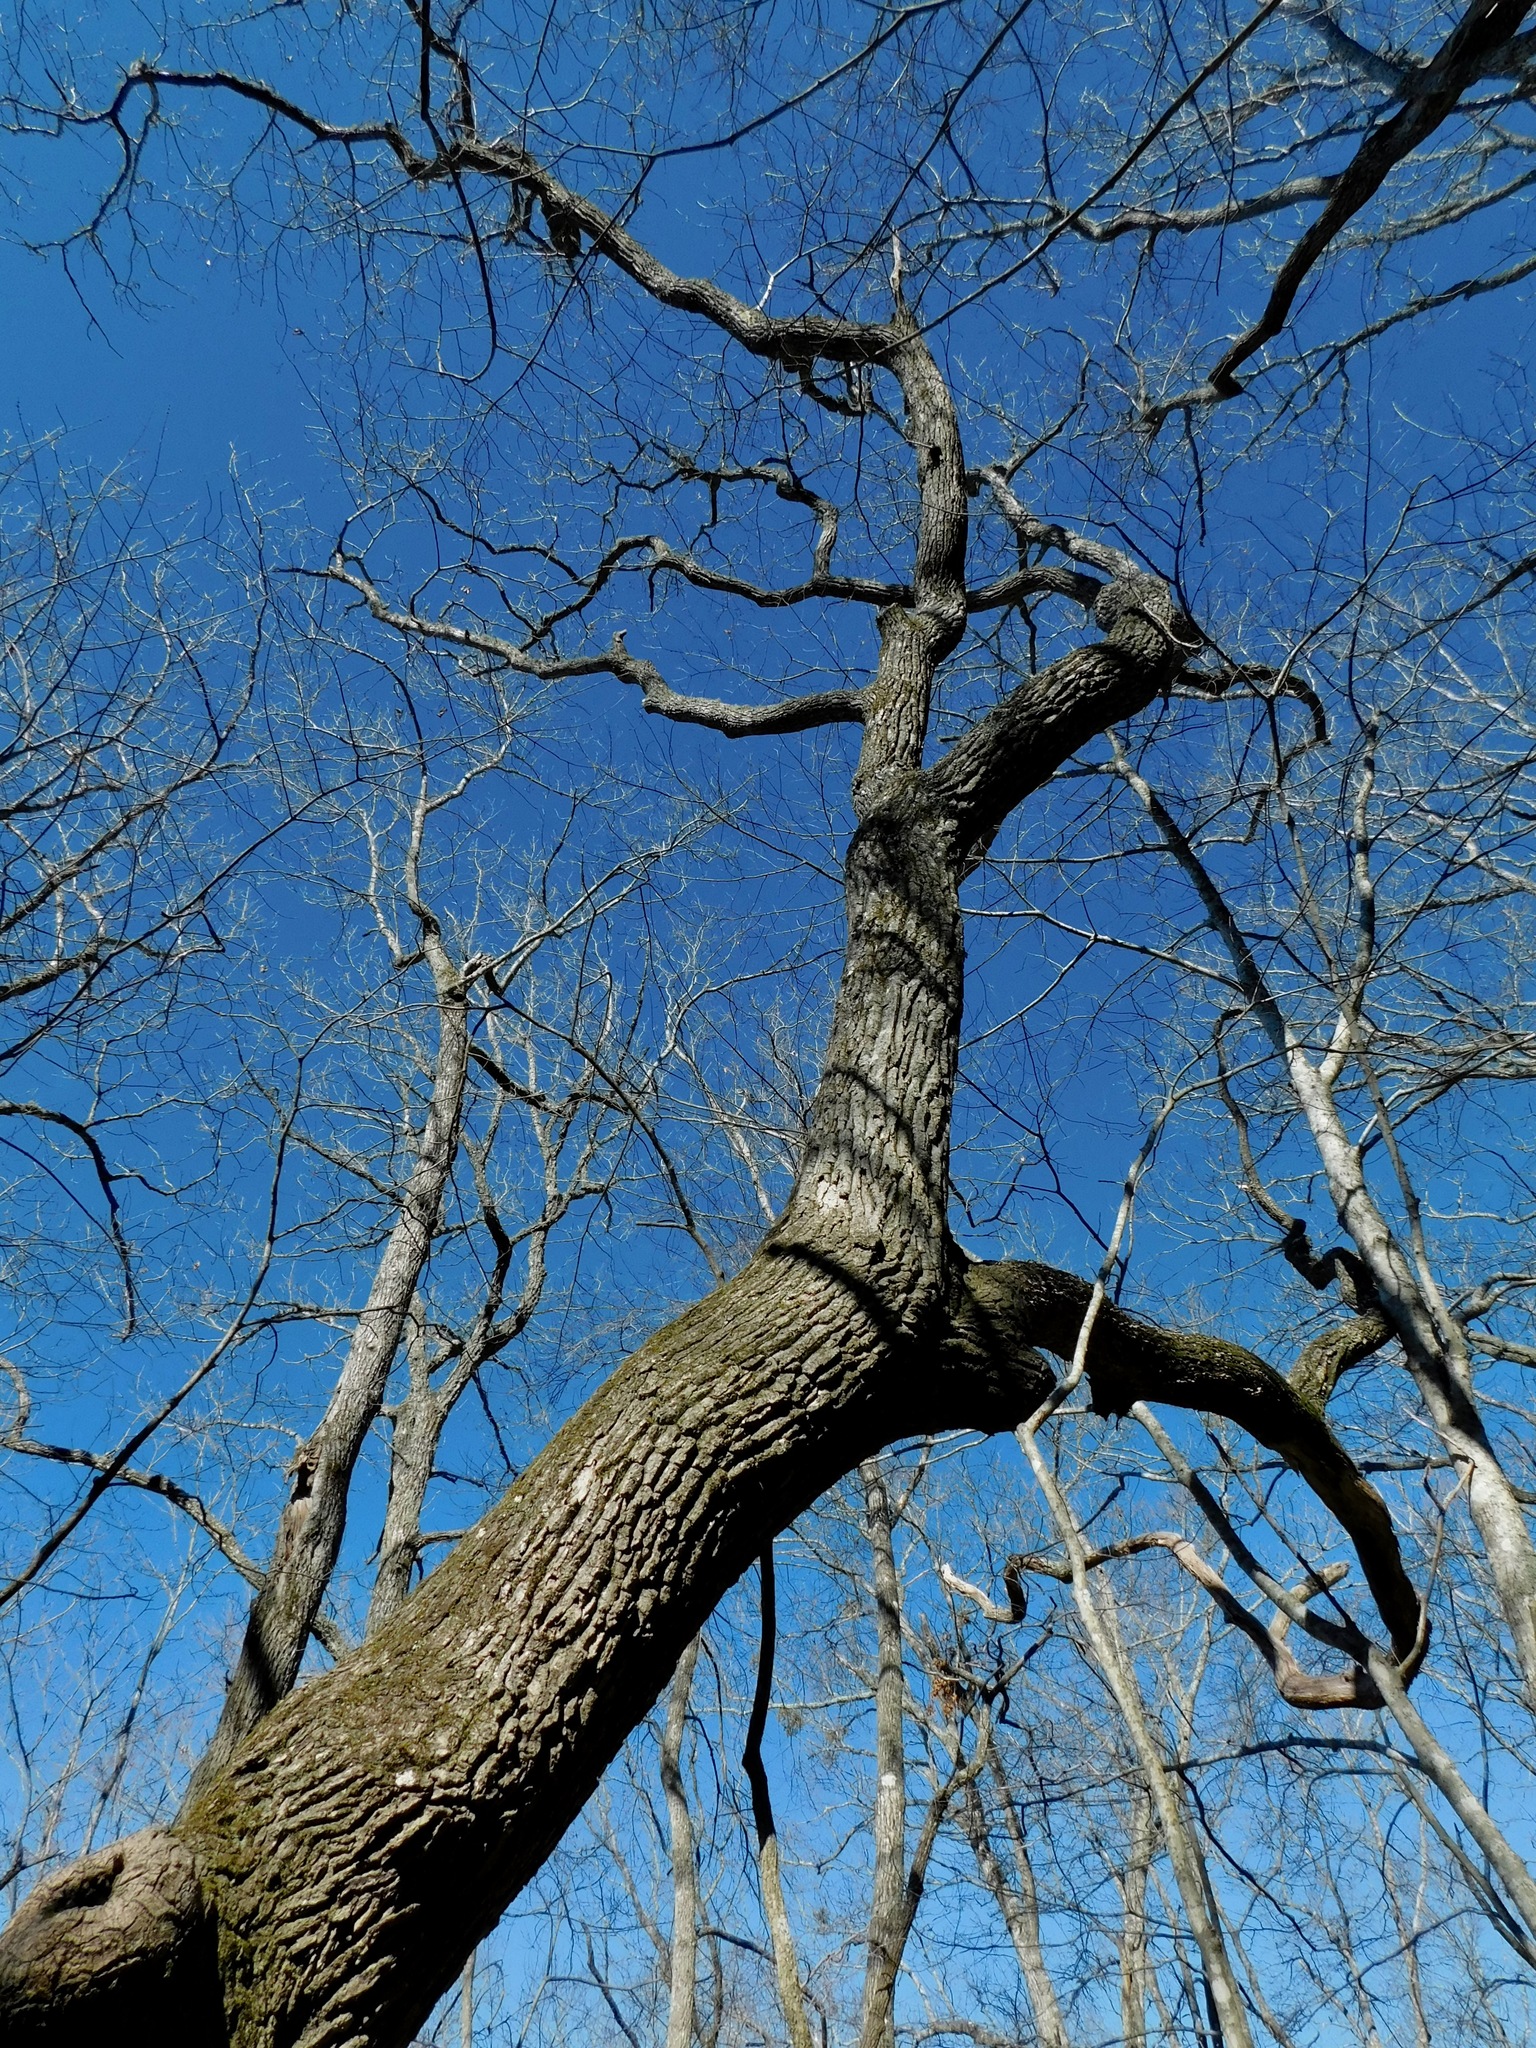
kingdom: Plantae
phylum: Bryophyta
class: Bryopsida
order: Hypnales
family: Amblystegiaceae
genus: Anacamptodon
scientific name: Anacamptodon splachnoides
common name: Knot-hole moss
